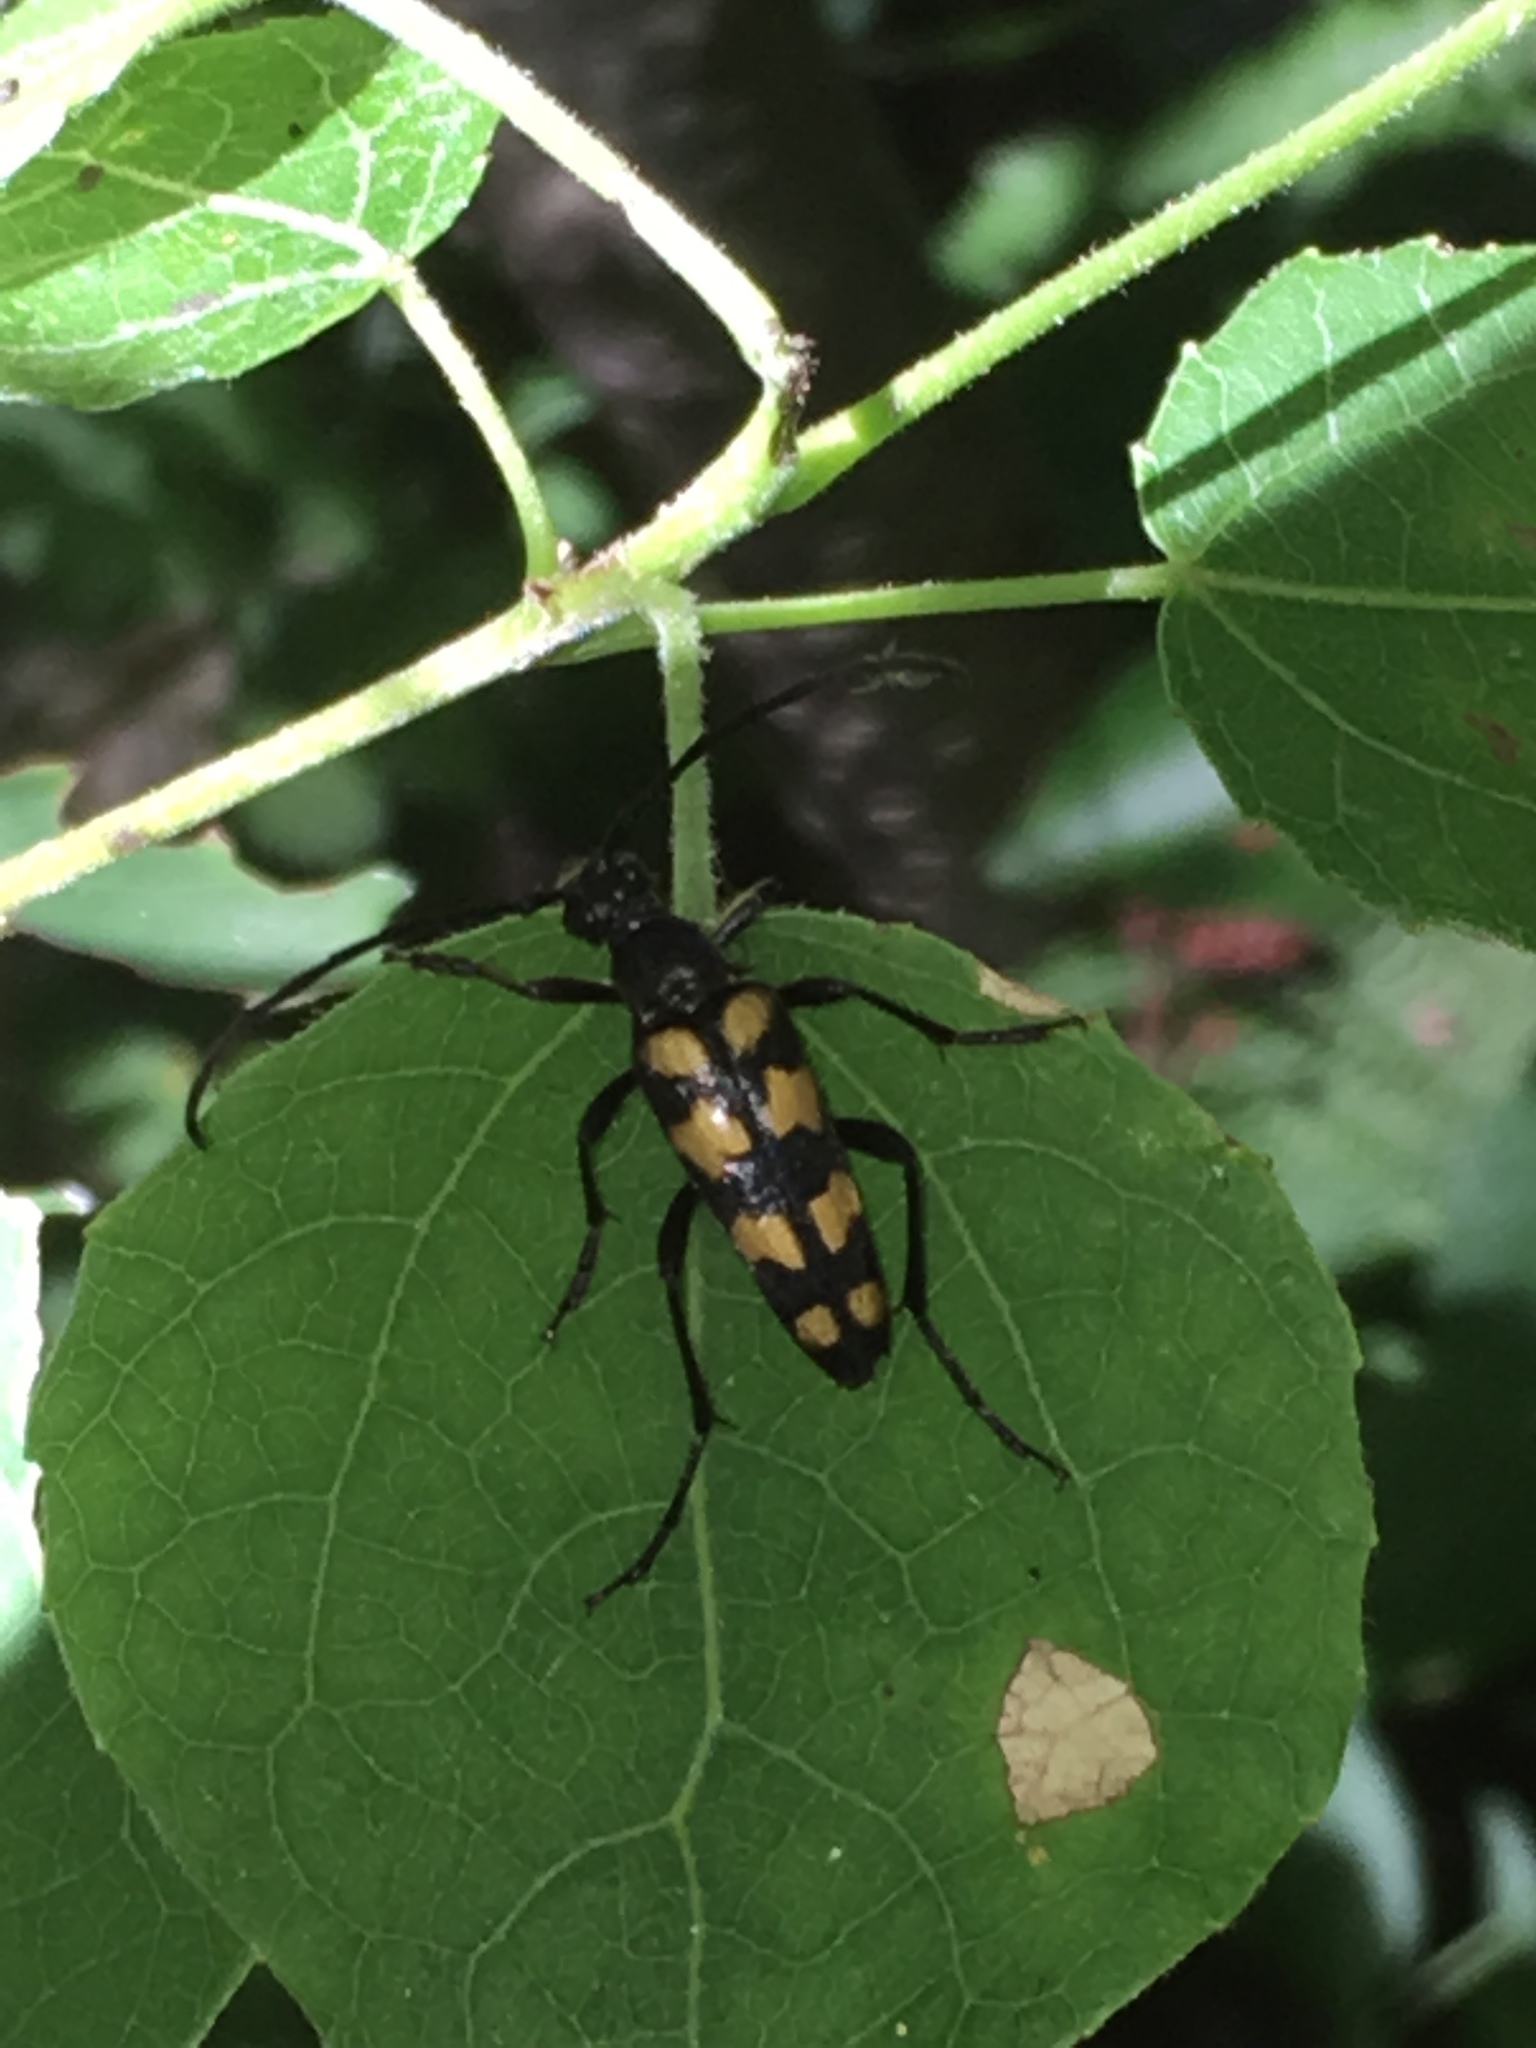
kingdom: Animalia
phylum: Arthropoda
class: Insecta
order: Coleoptera
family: Cerambycidae
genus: Leptura
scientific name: Leptura quadrifasciata
